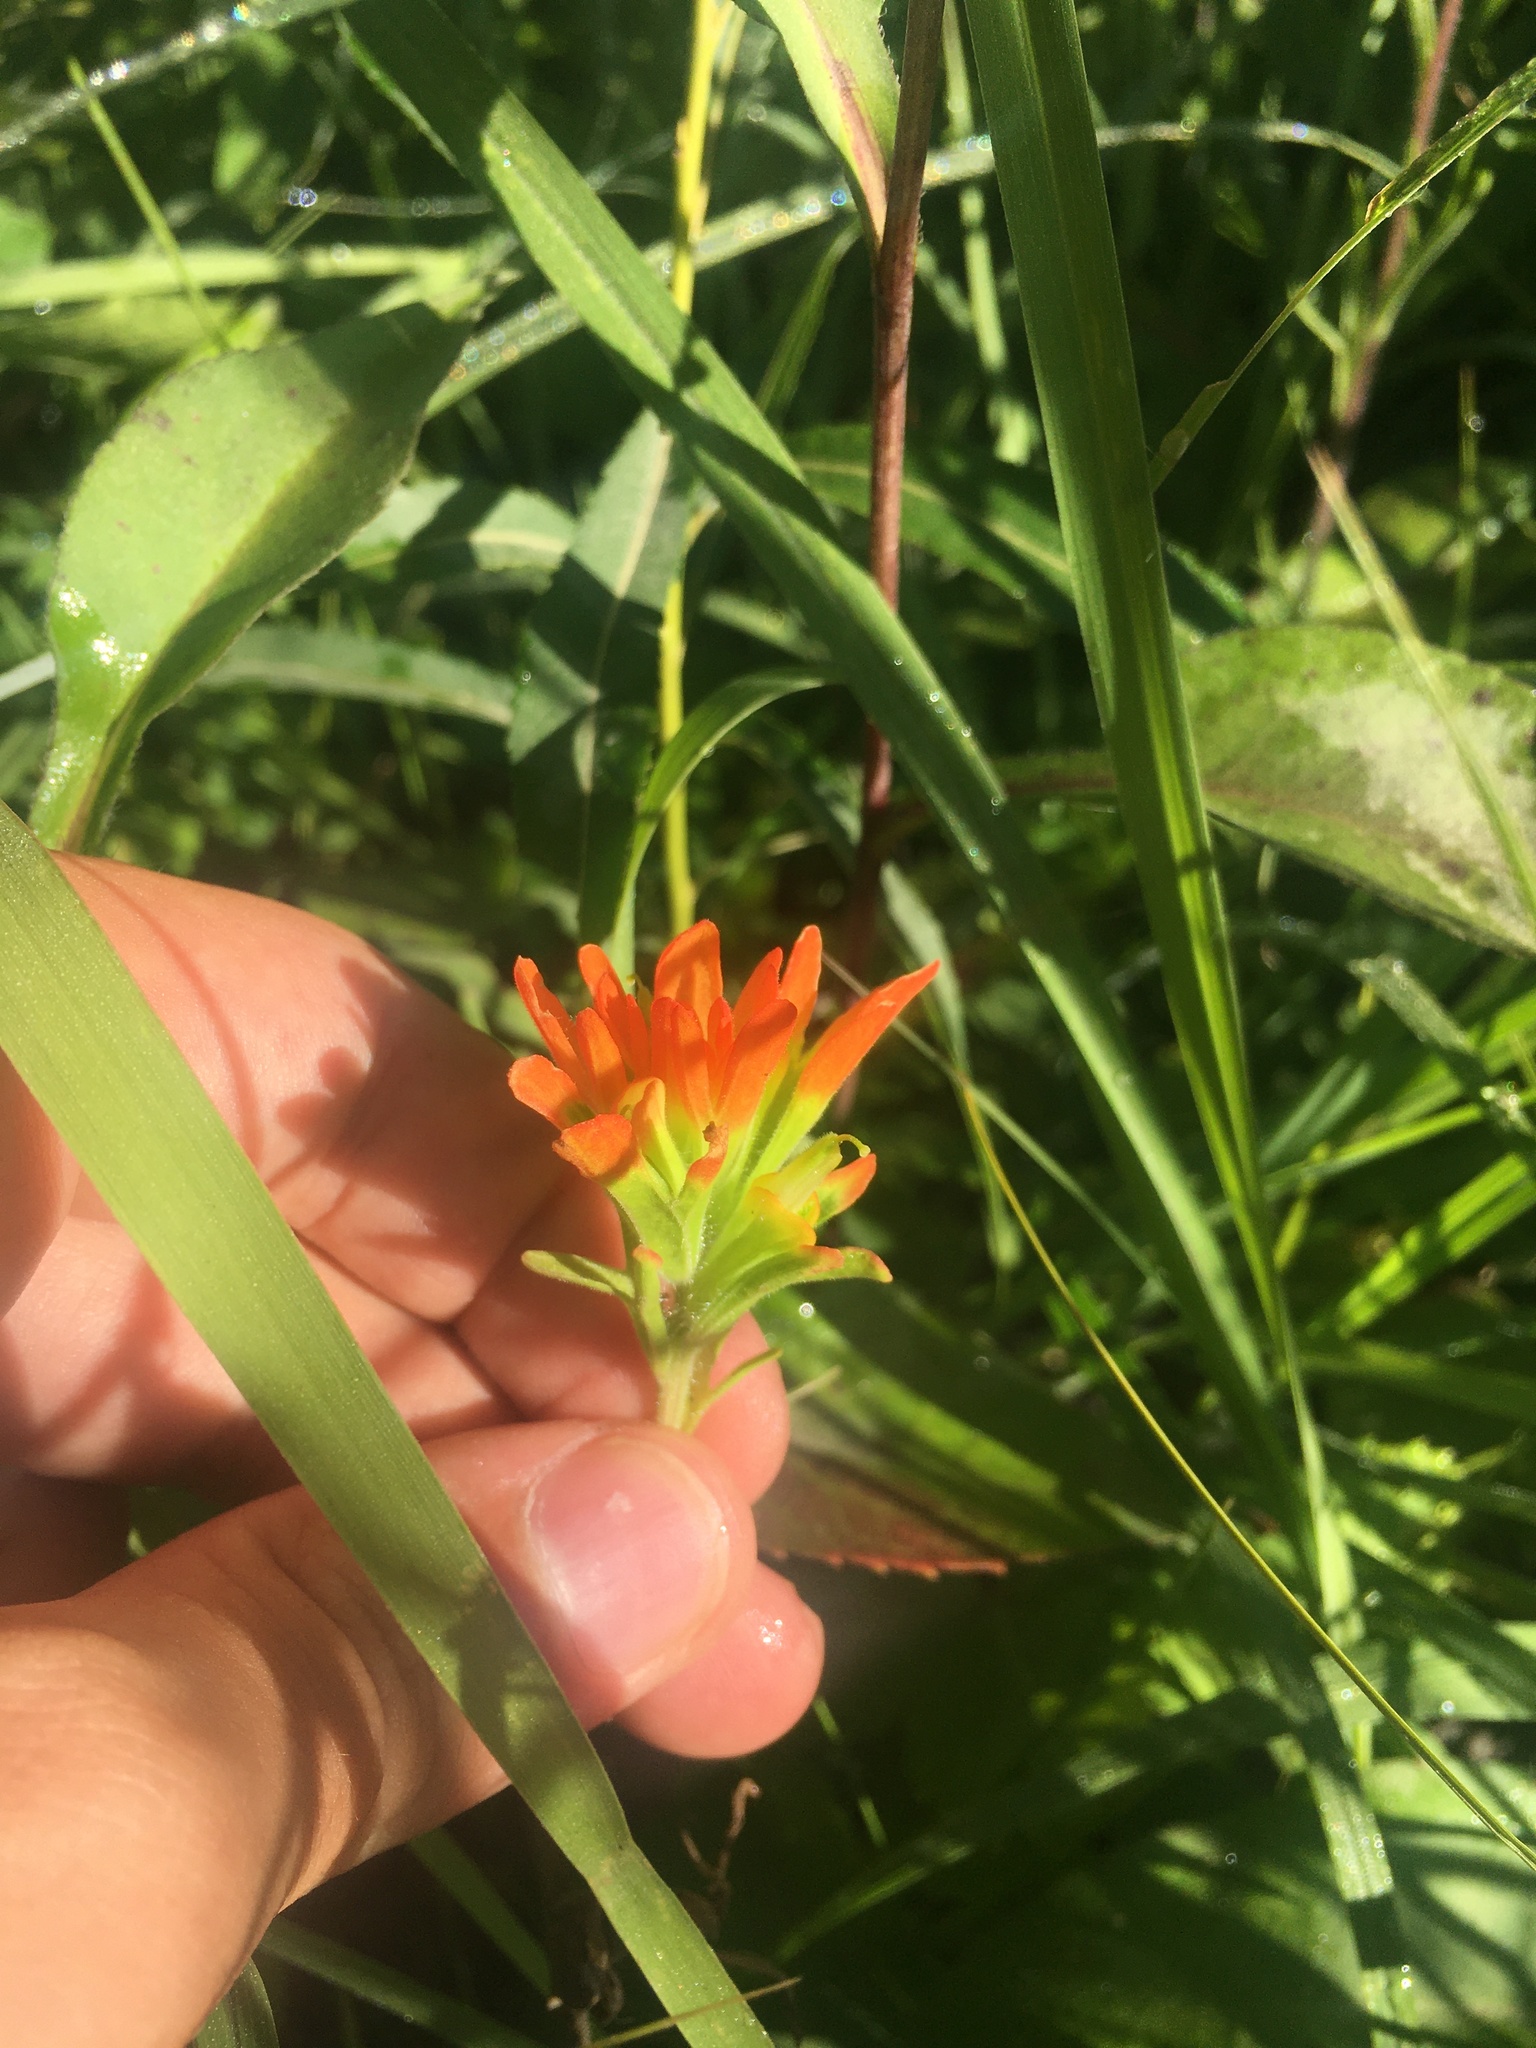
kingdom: Plantae
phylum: Tracheophyta
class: Magnoliopsida
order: Lamiales
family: Orobanchaceae
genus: Castilleja
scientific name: Castilleja coccinea
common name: Scarlet paintbrush
